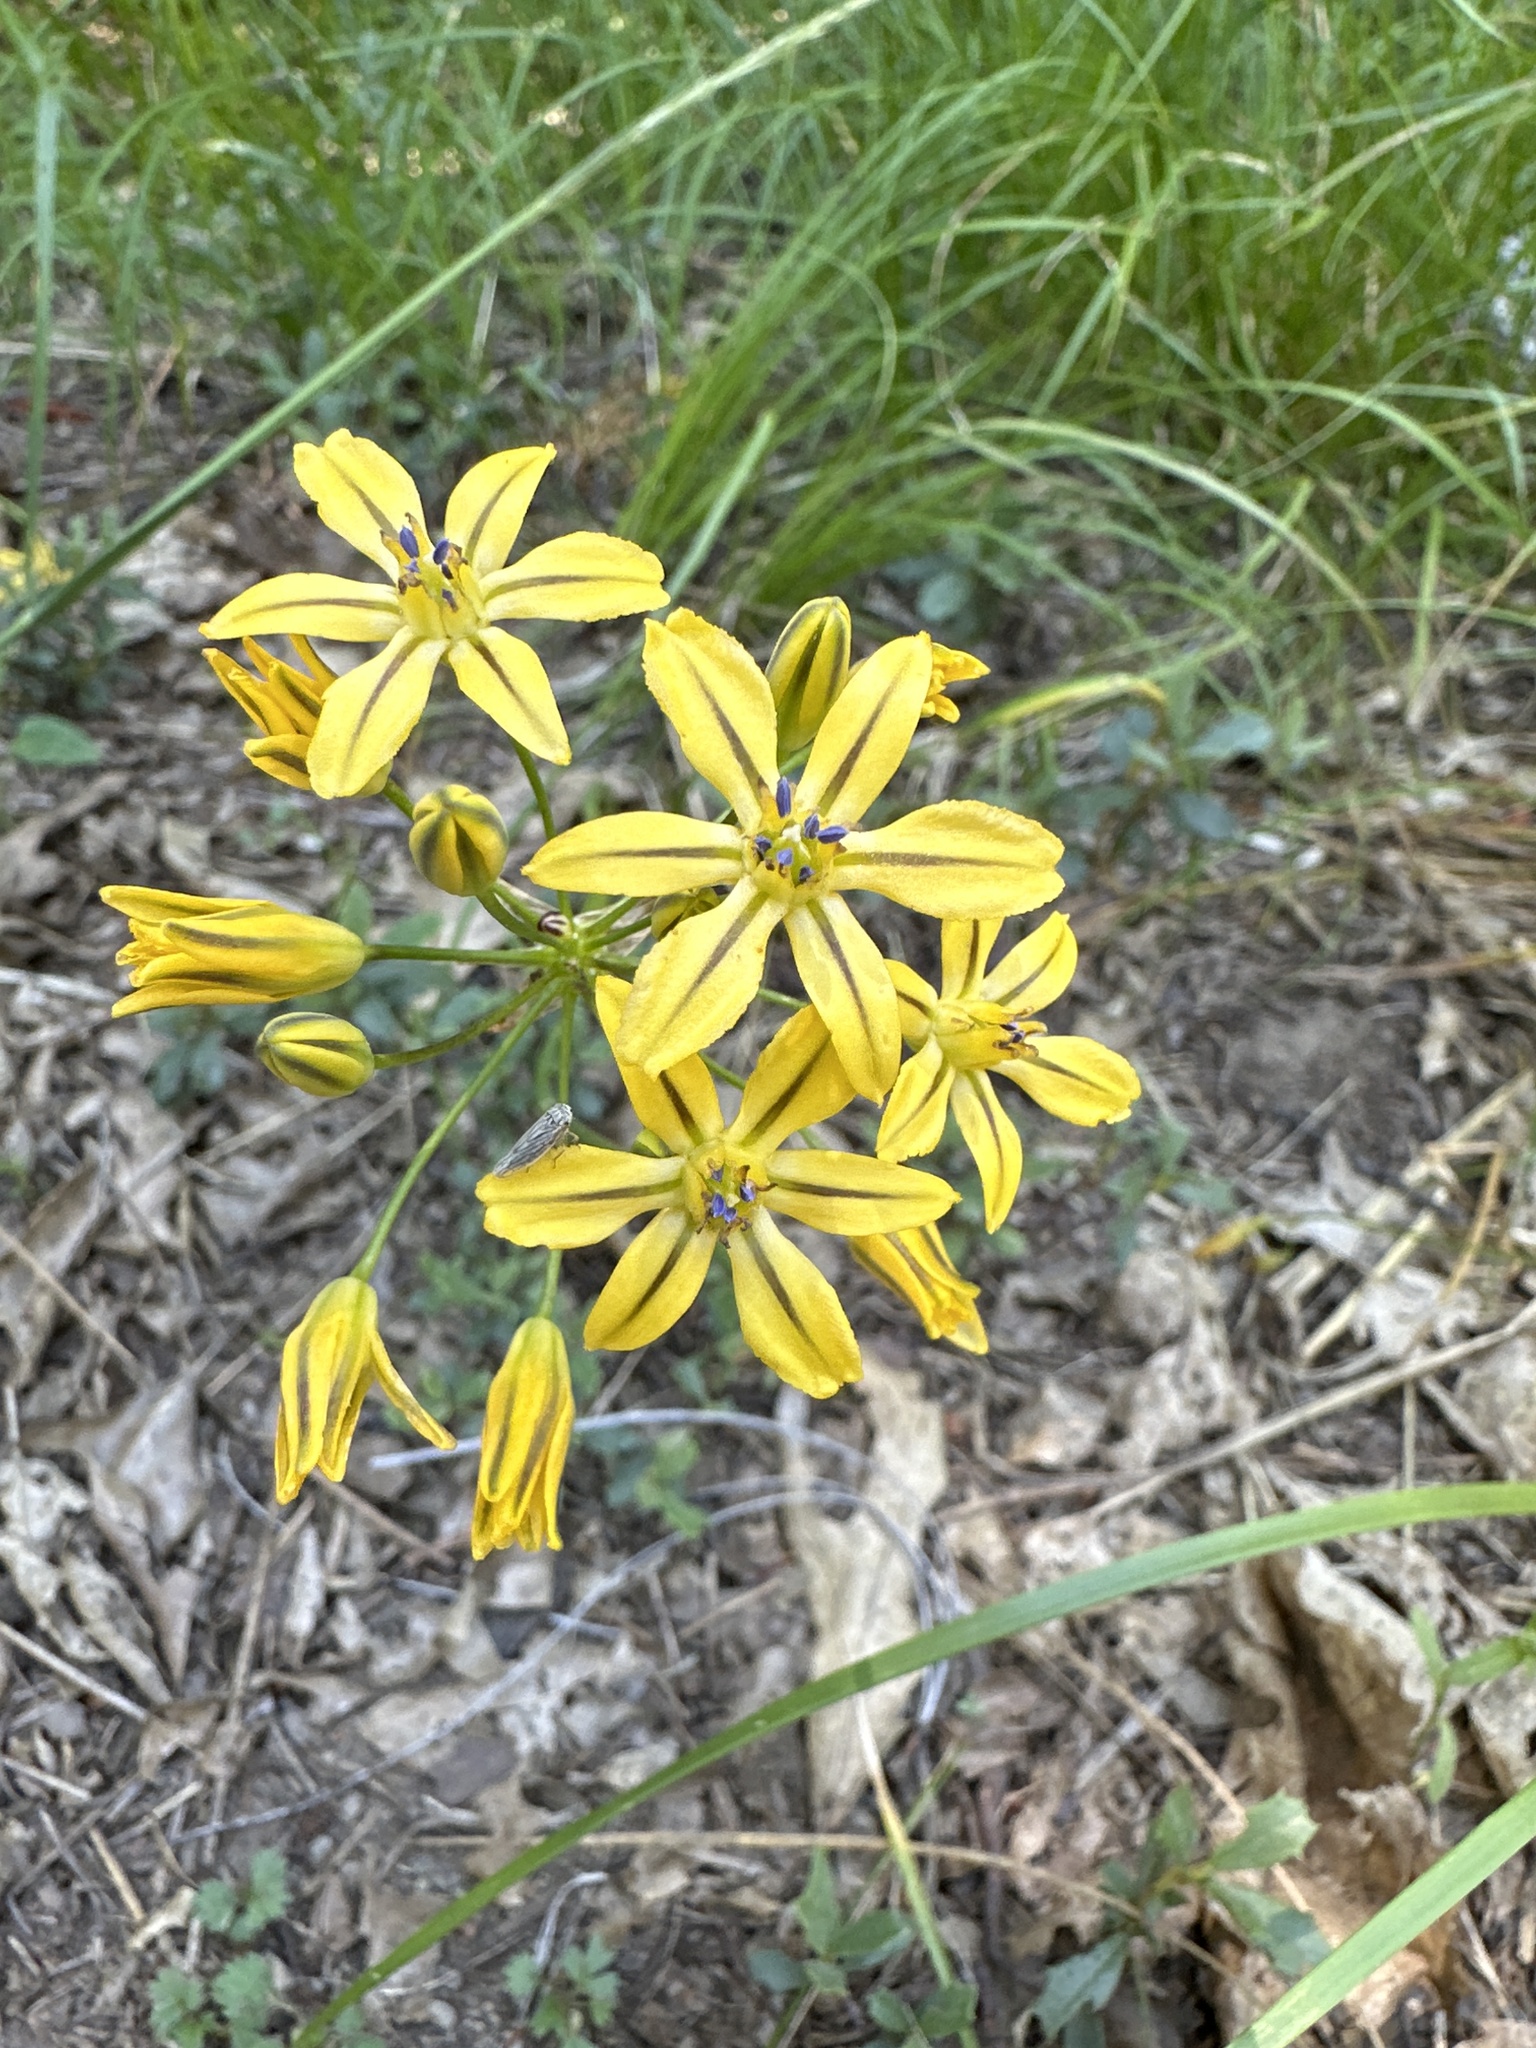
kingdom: Plantae
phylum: Tracheophyta
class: Liliopsida
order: Asparagales
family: Asparagaceae
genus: Triteleia
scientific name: Triteleia ixioides
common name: Yellow-brodiaea
